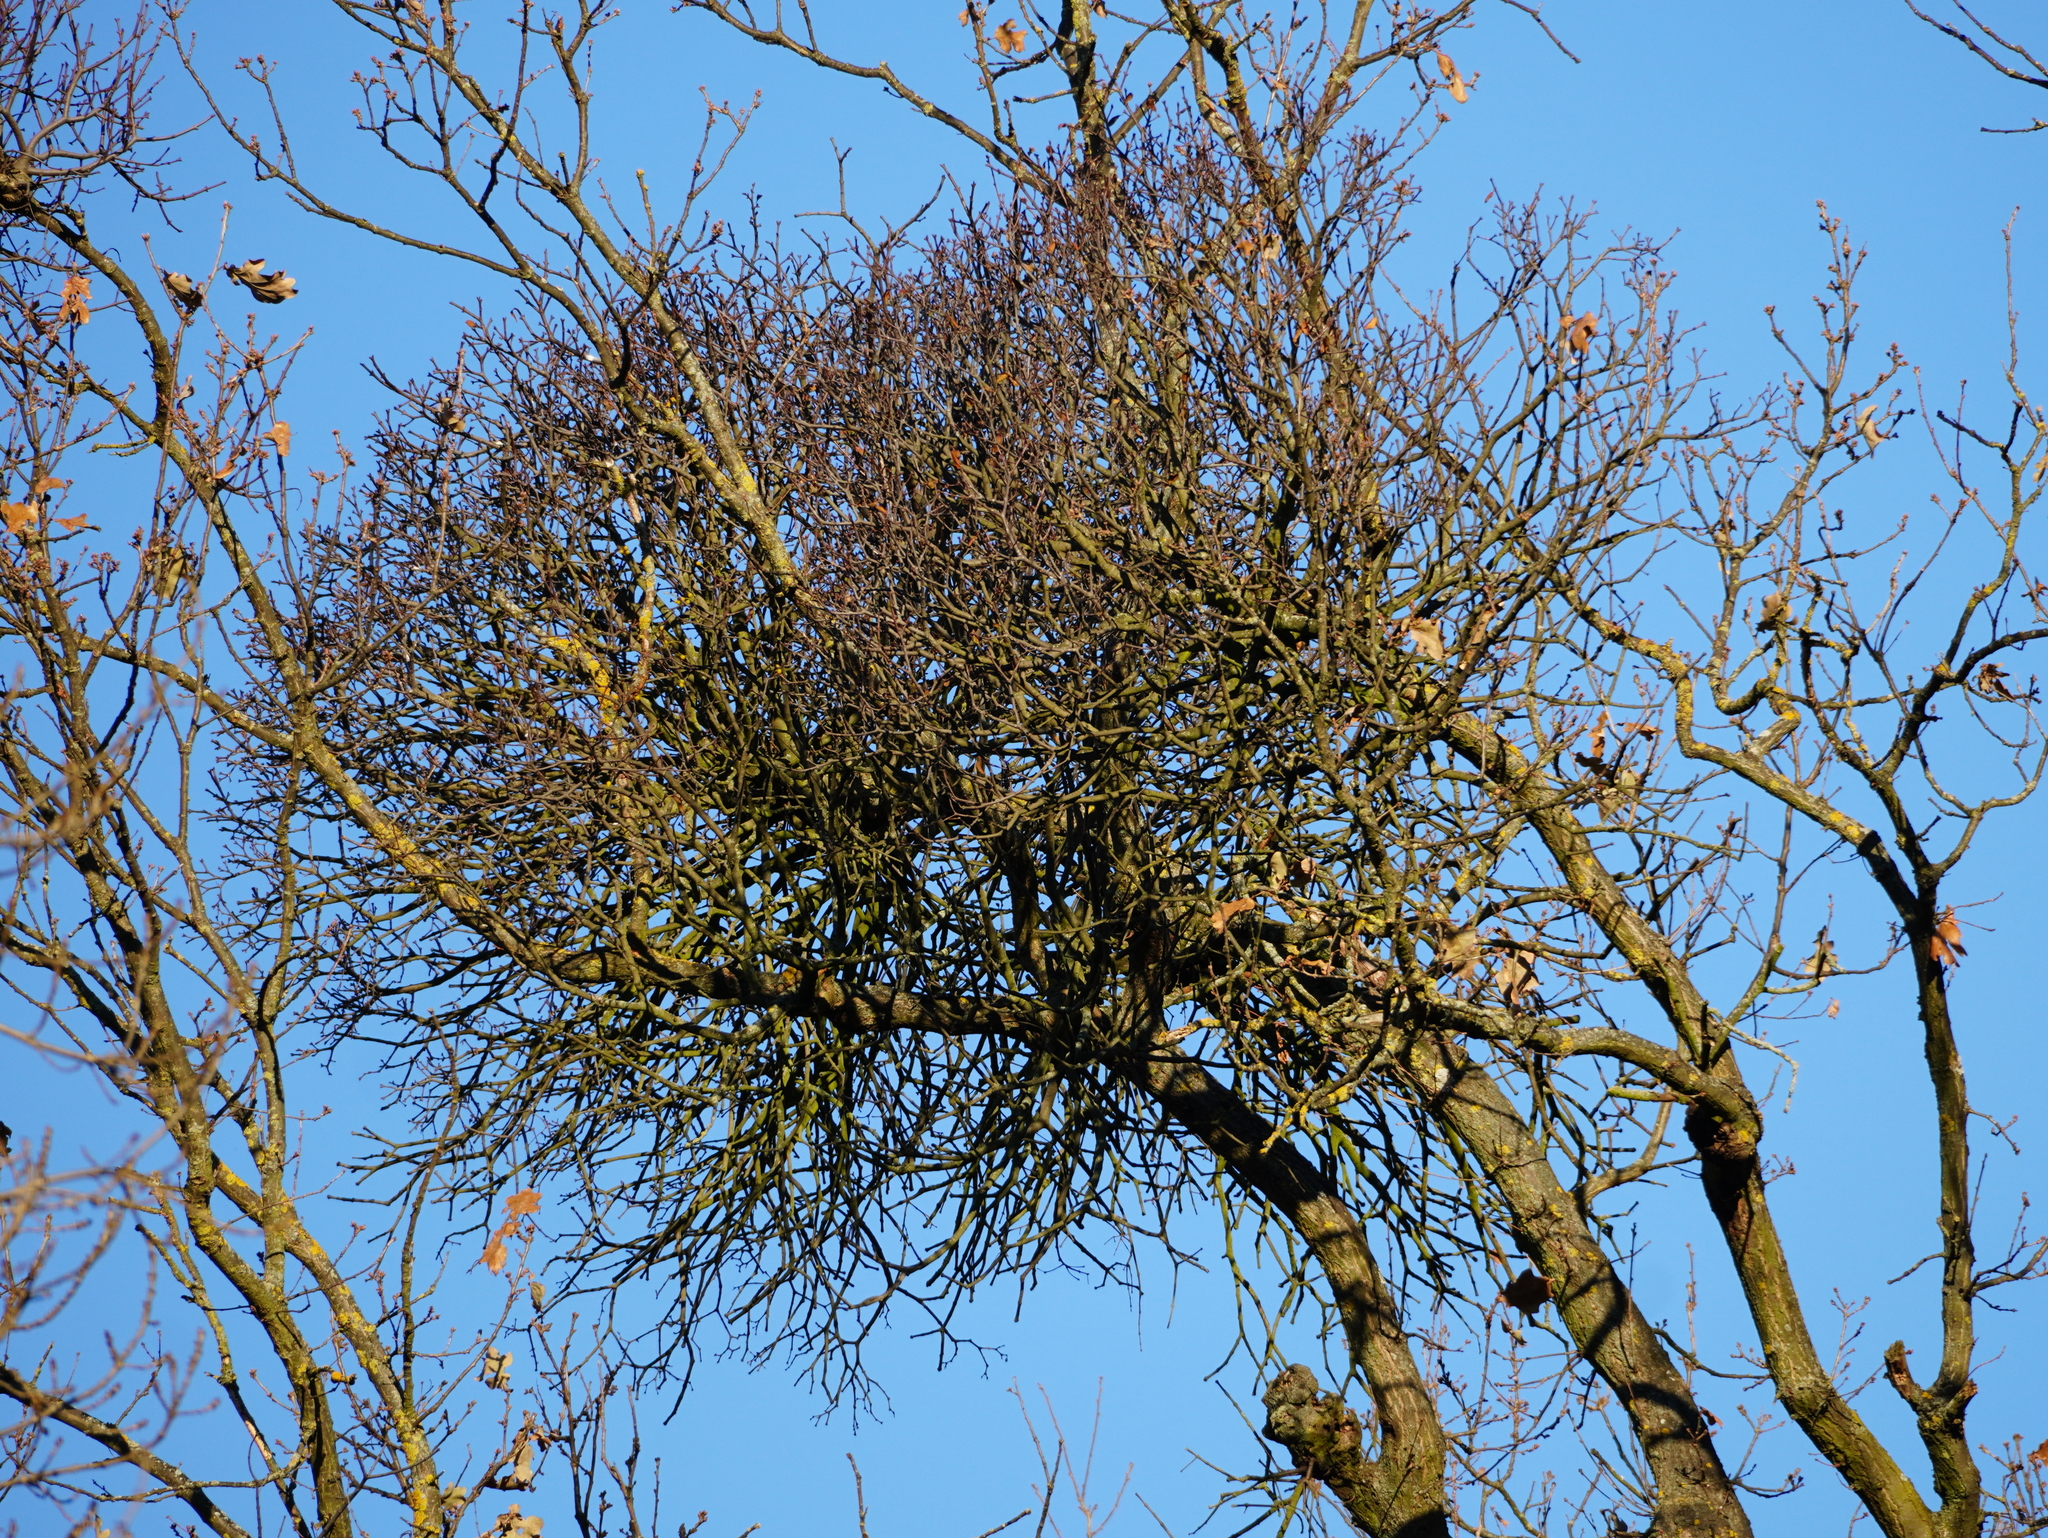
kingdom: Plantae
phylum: Tracheophyta
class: Magnoliopsida
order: Santalales
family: Loranthaceae
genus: Loranthus
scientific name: Loranthus europaeus
